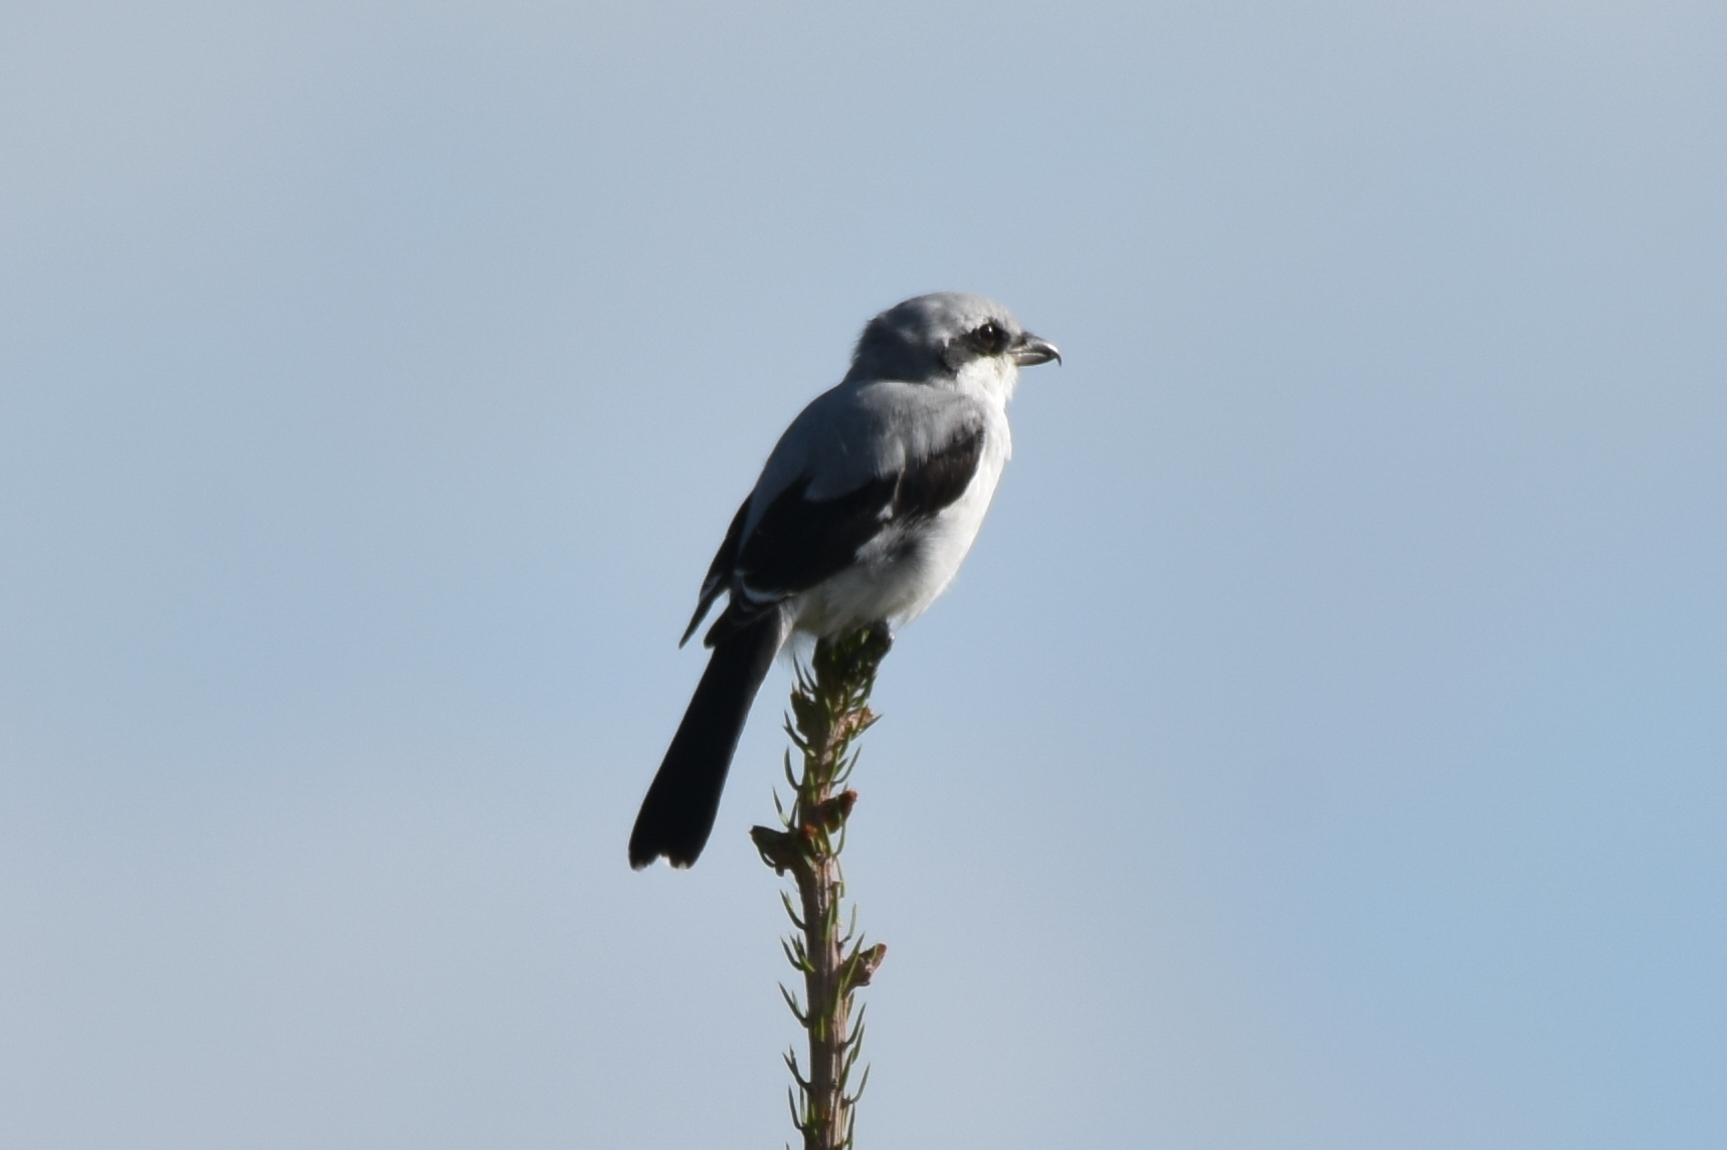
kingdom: Animalia
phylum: Chordata
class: Aves
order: Passeriformes
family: Laniidae
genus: Lanius
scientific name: Lanius excubitor
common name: Great grey shrike
